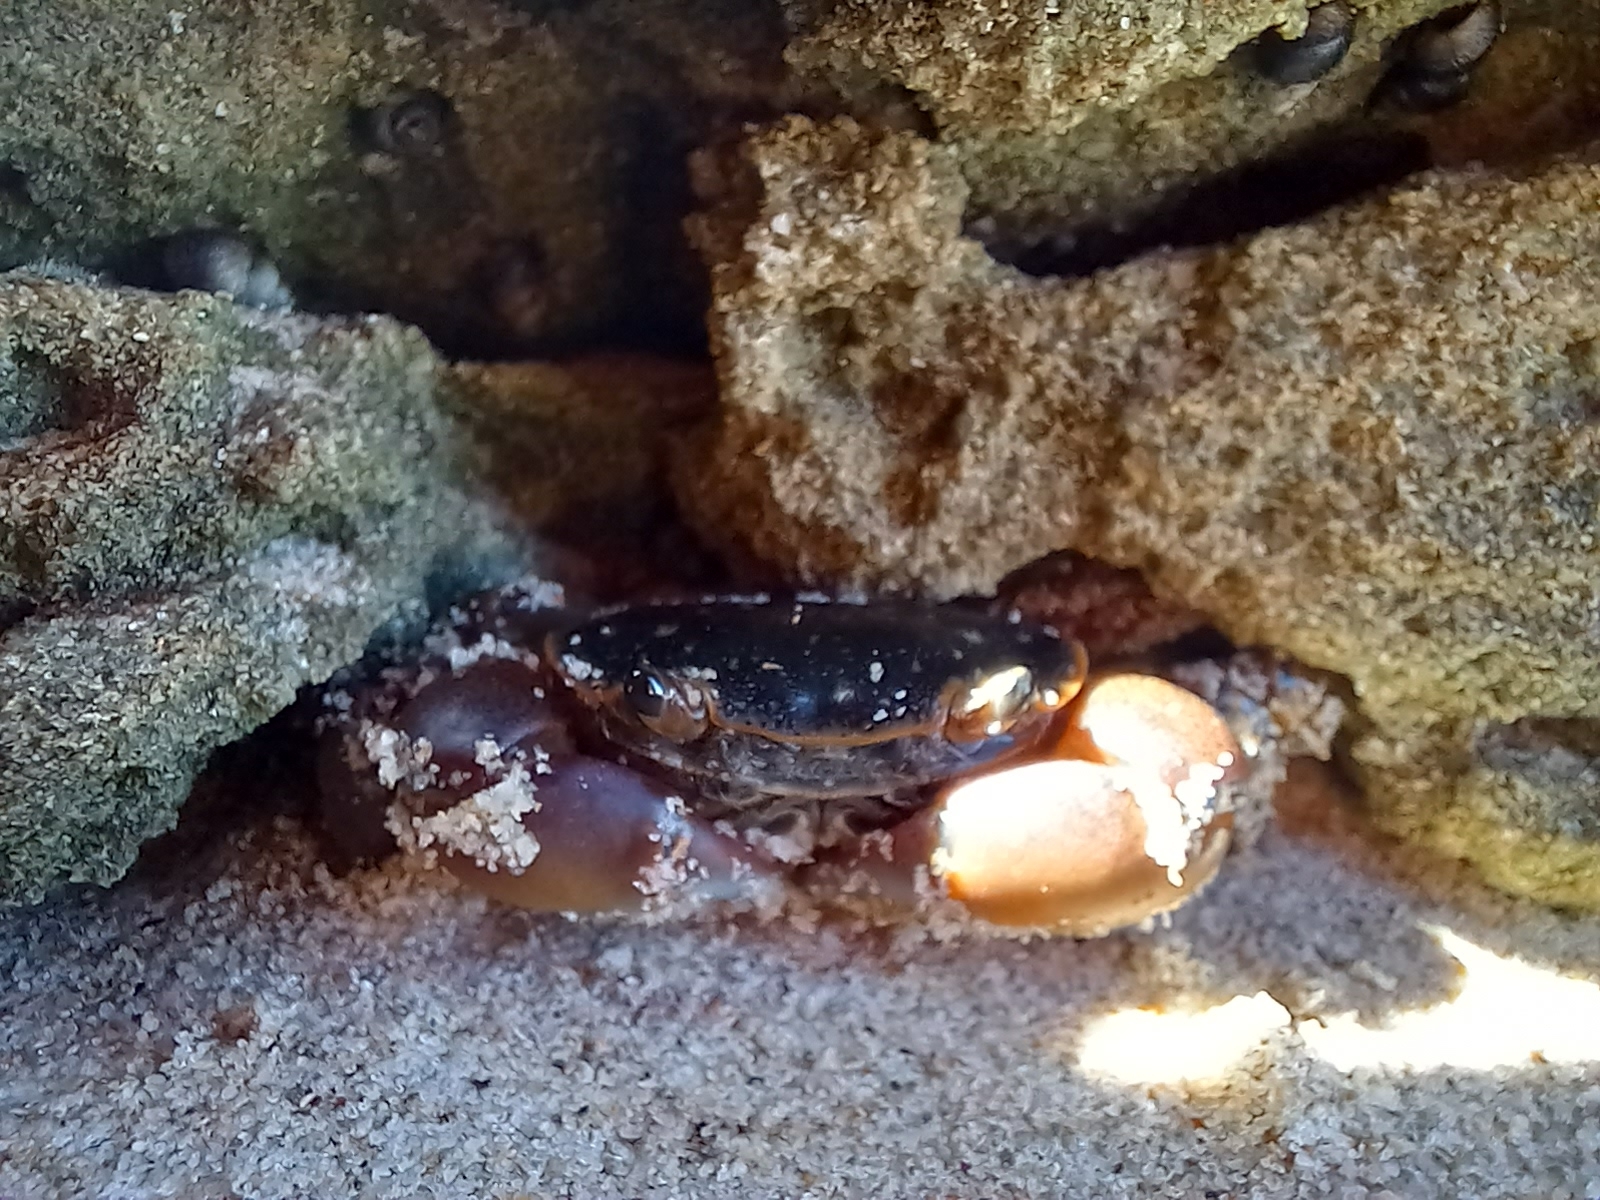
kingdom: Animalia
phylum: Arthropoda
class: Malacostraca
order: Decapoda
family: Varunidae
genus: Cyclograpsus
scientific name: Cyclograpsus punctatus
